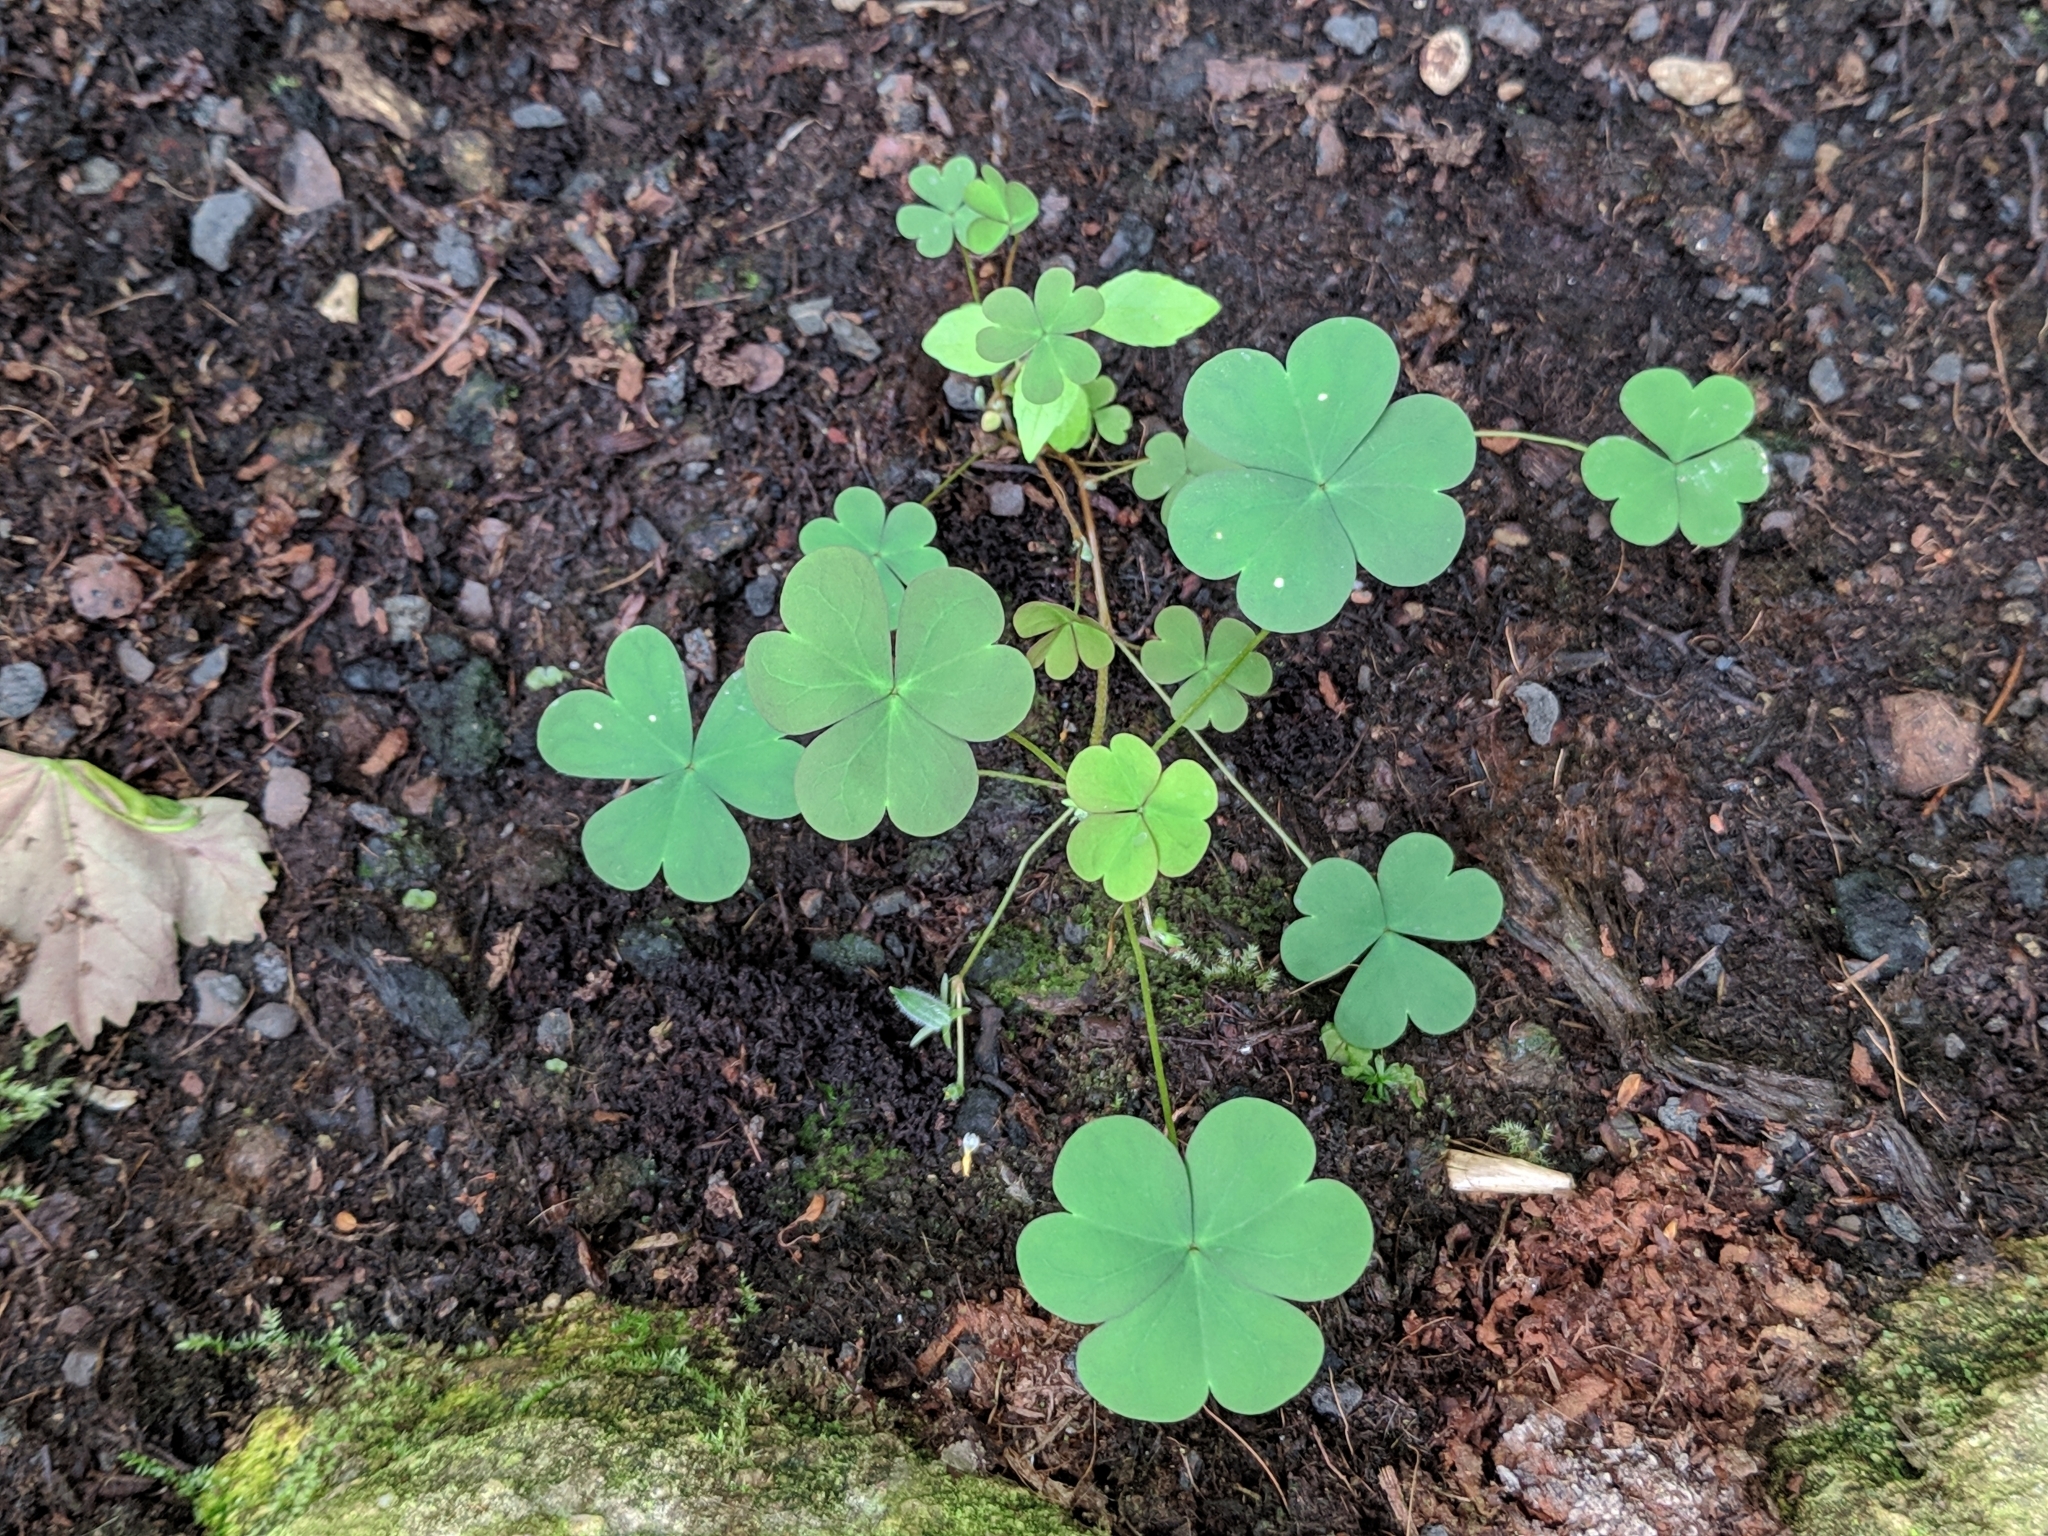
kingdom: Plantae
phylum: Tracheophyta
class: Magnoliopsida
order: Oxalidales
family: Oxalidaceae
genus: Oxalis
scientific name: Oxalis corniculata
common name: Procumbent yellow-sorrel
